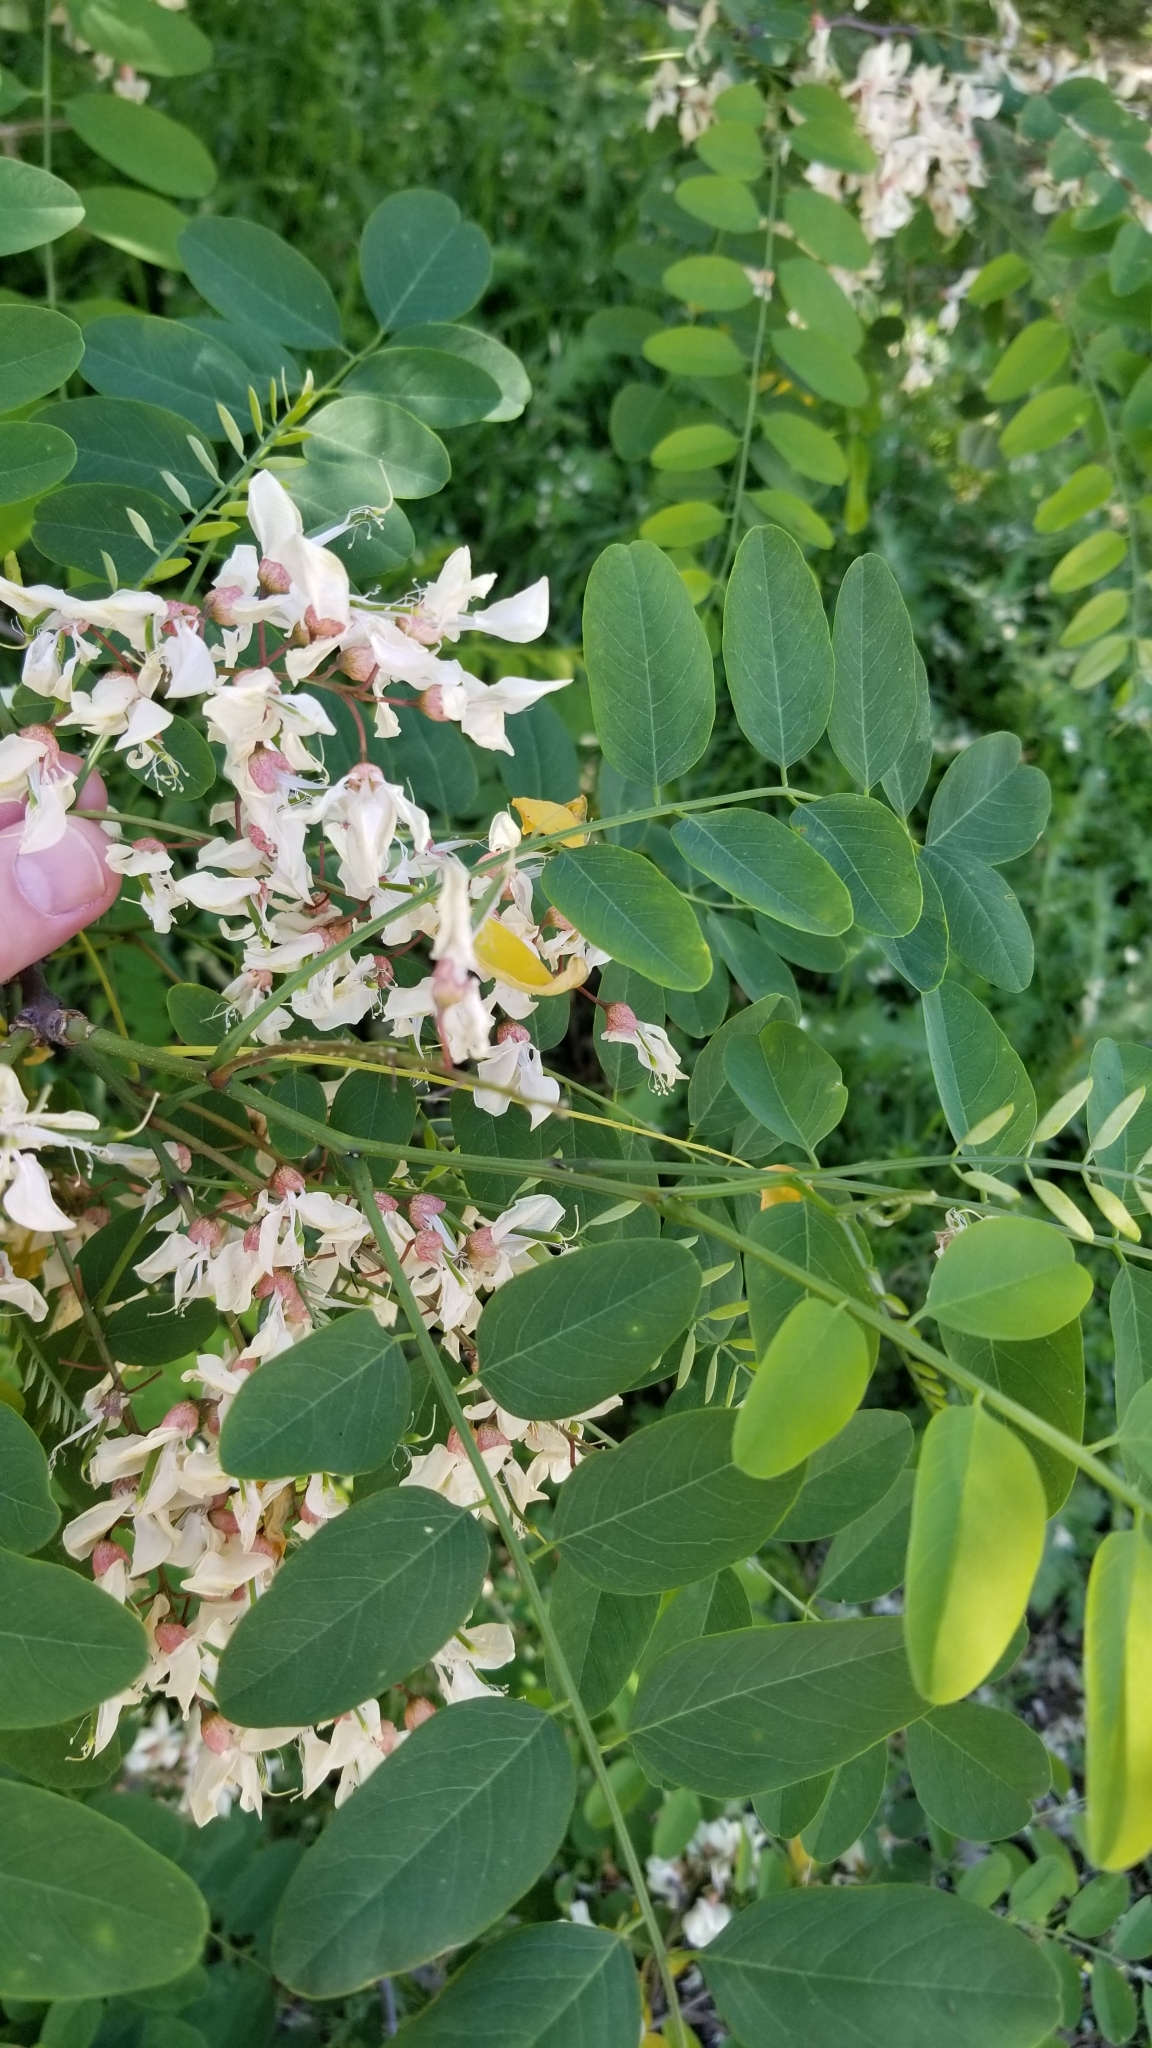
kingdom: Plantae
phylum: Tracheophyta
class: Magnoliopsida
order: Fabales
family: Fabaceae
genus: Robinia
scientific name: Robinia pseudoacacia
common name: Black locust
